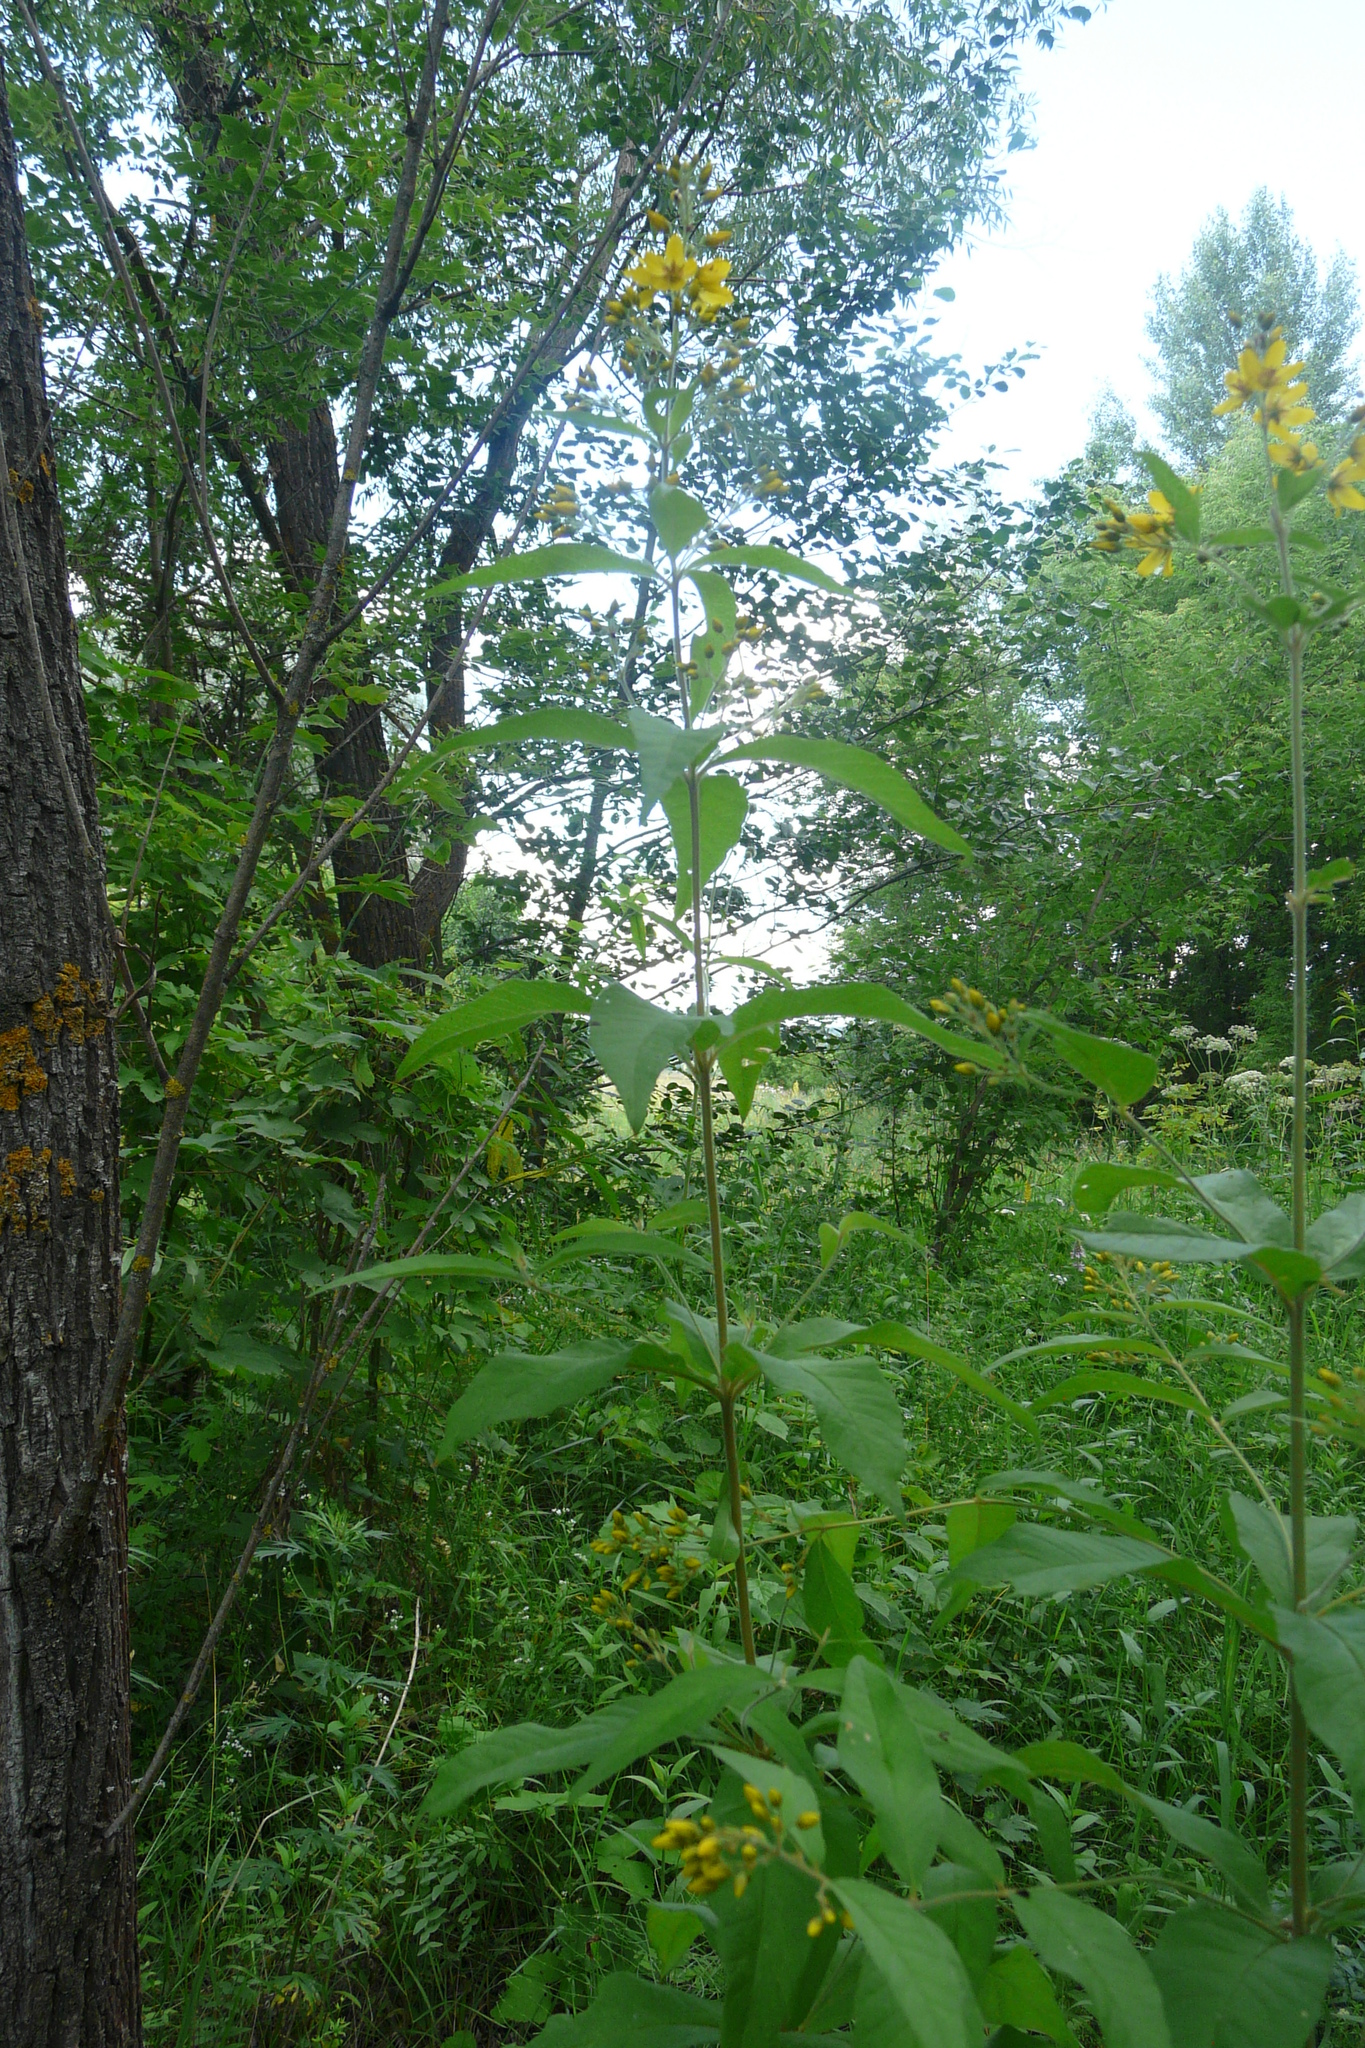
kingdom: Plantae
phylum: Tracheophyta
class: Magnoliopsida
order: Ericales
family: Primulaceae
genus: Lysimachia
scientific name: Lysimachia vulgaris
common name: Yellow loosestrife
